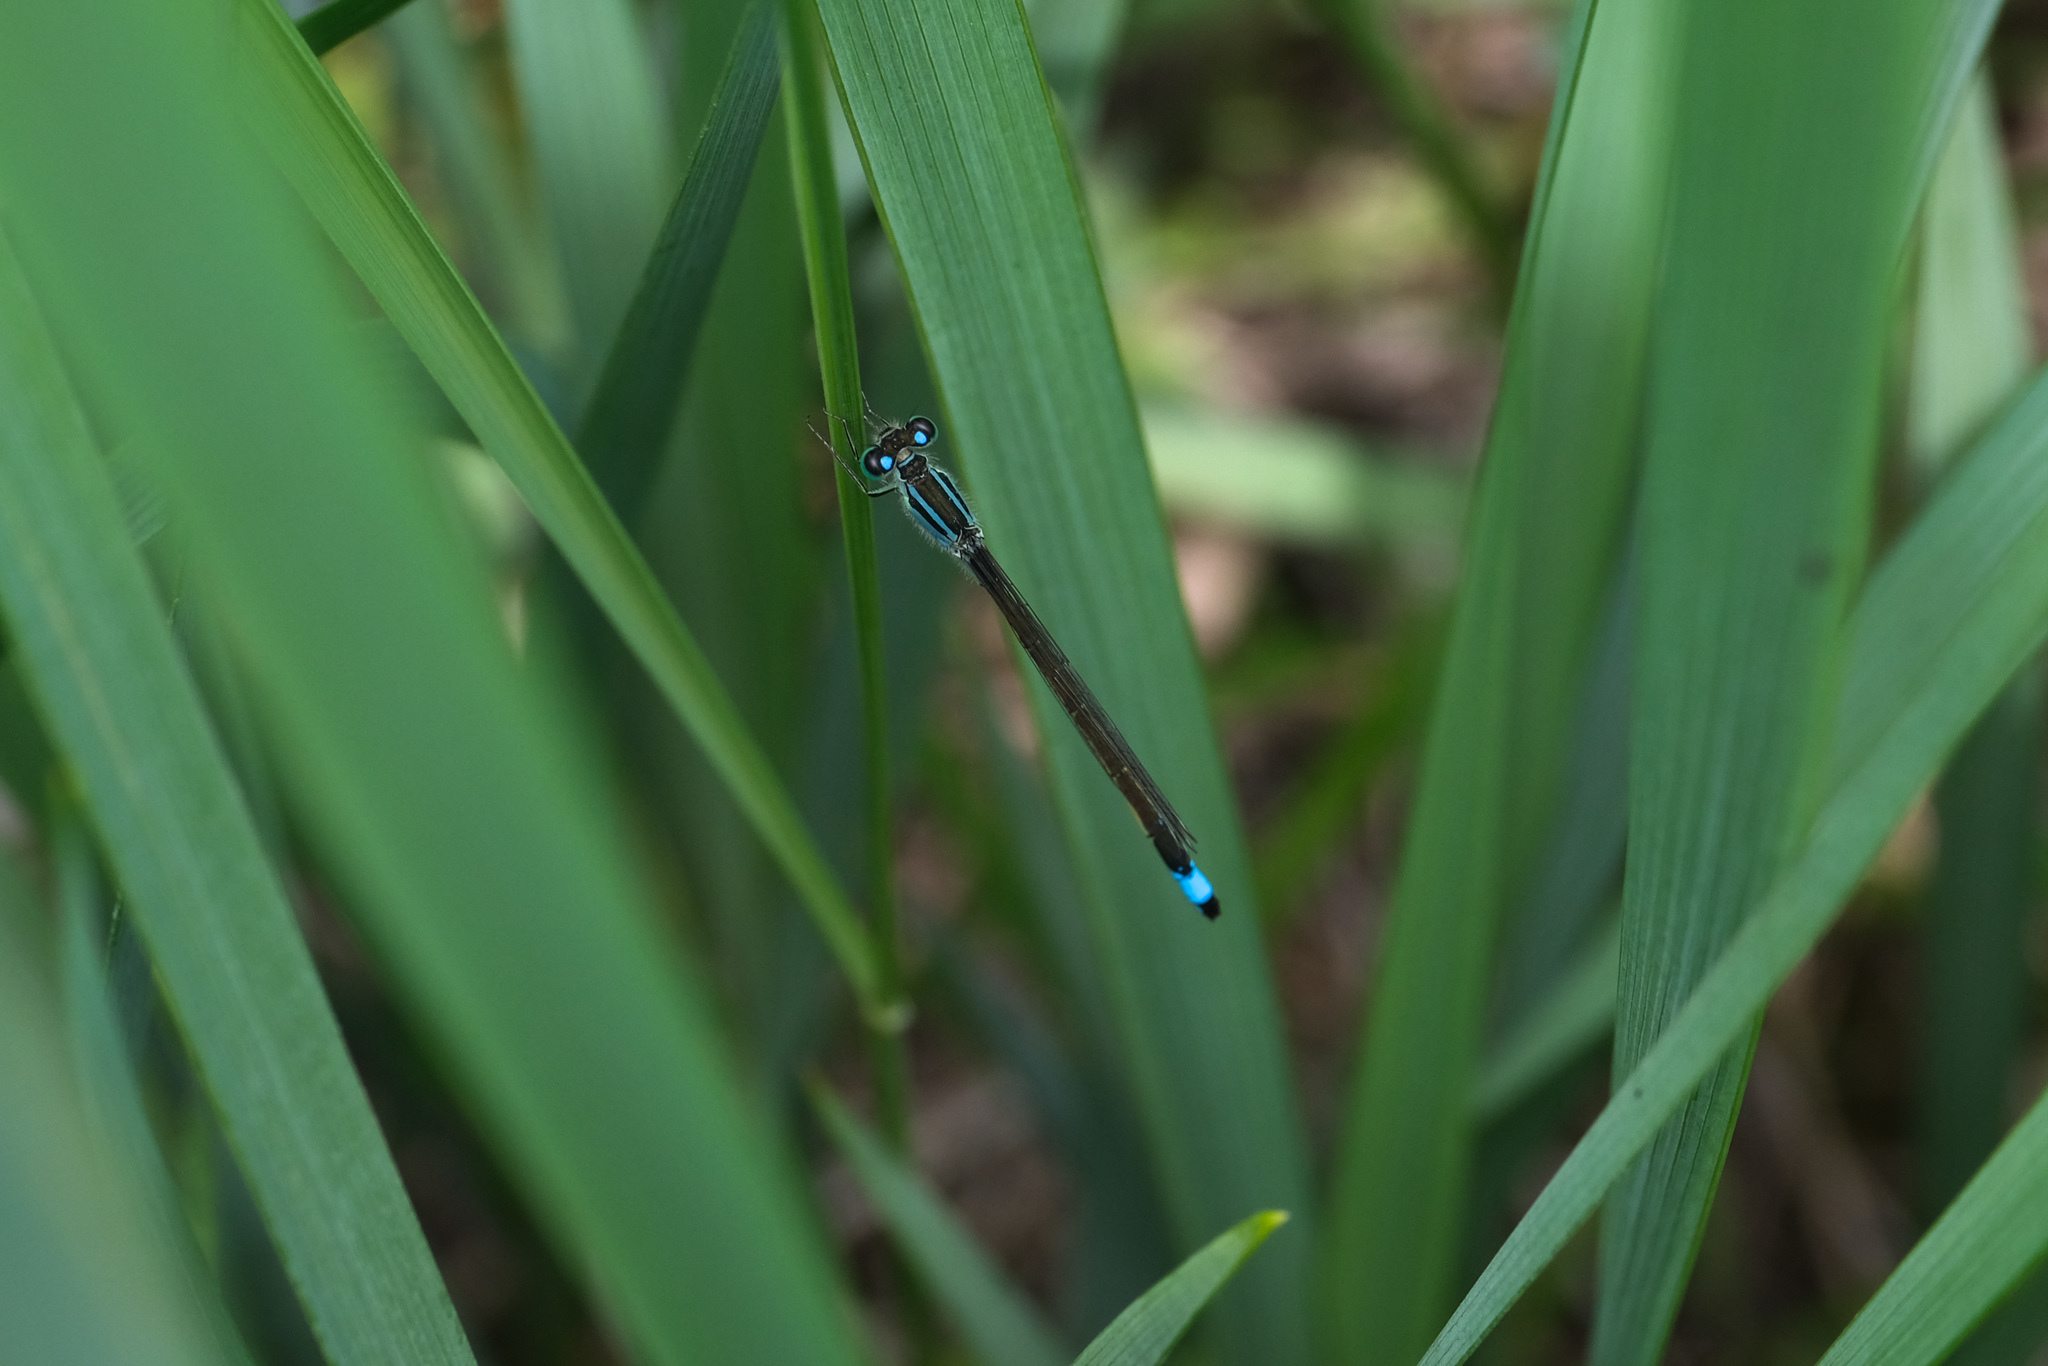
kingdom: Animalia
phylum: Arthropoda
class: Insecta
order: Odonata
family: Coenagrionidae
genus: Ischnura
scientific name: Ischnura elegans
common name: Blue-tailed damselfly
